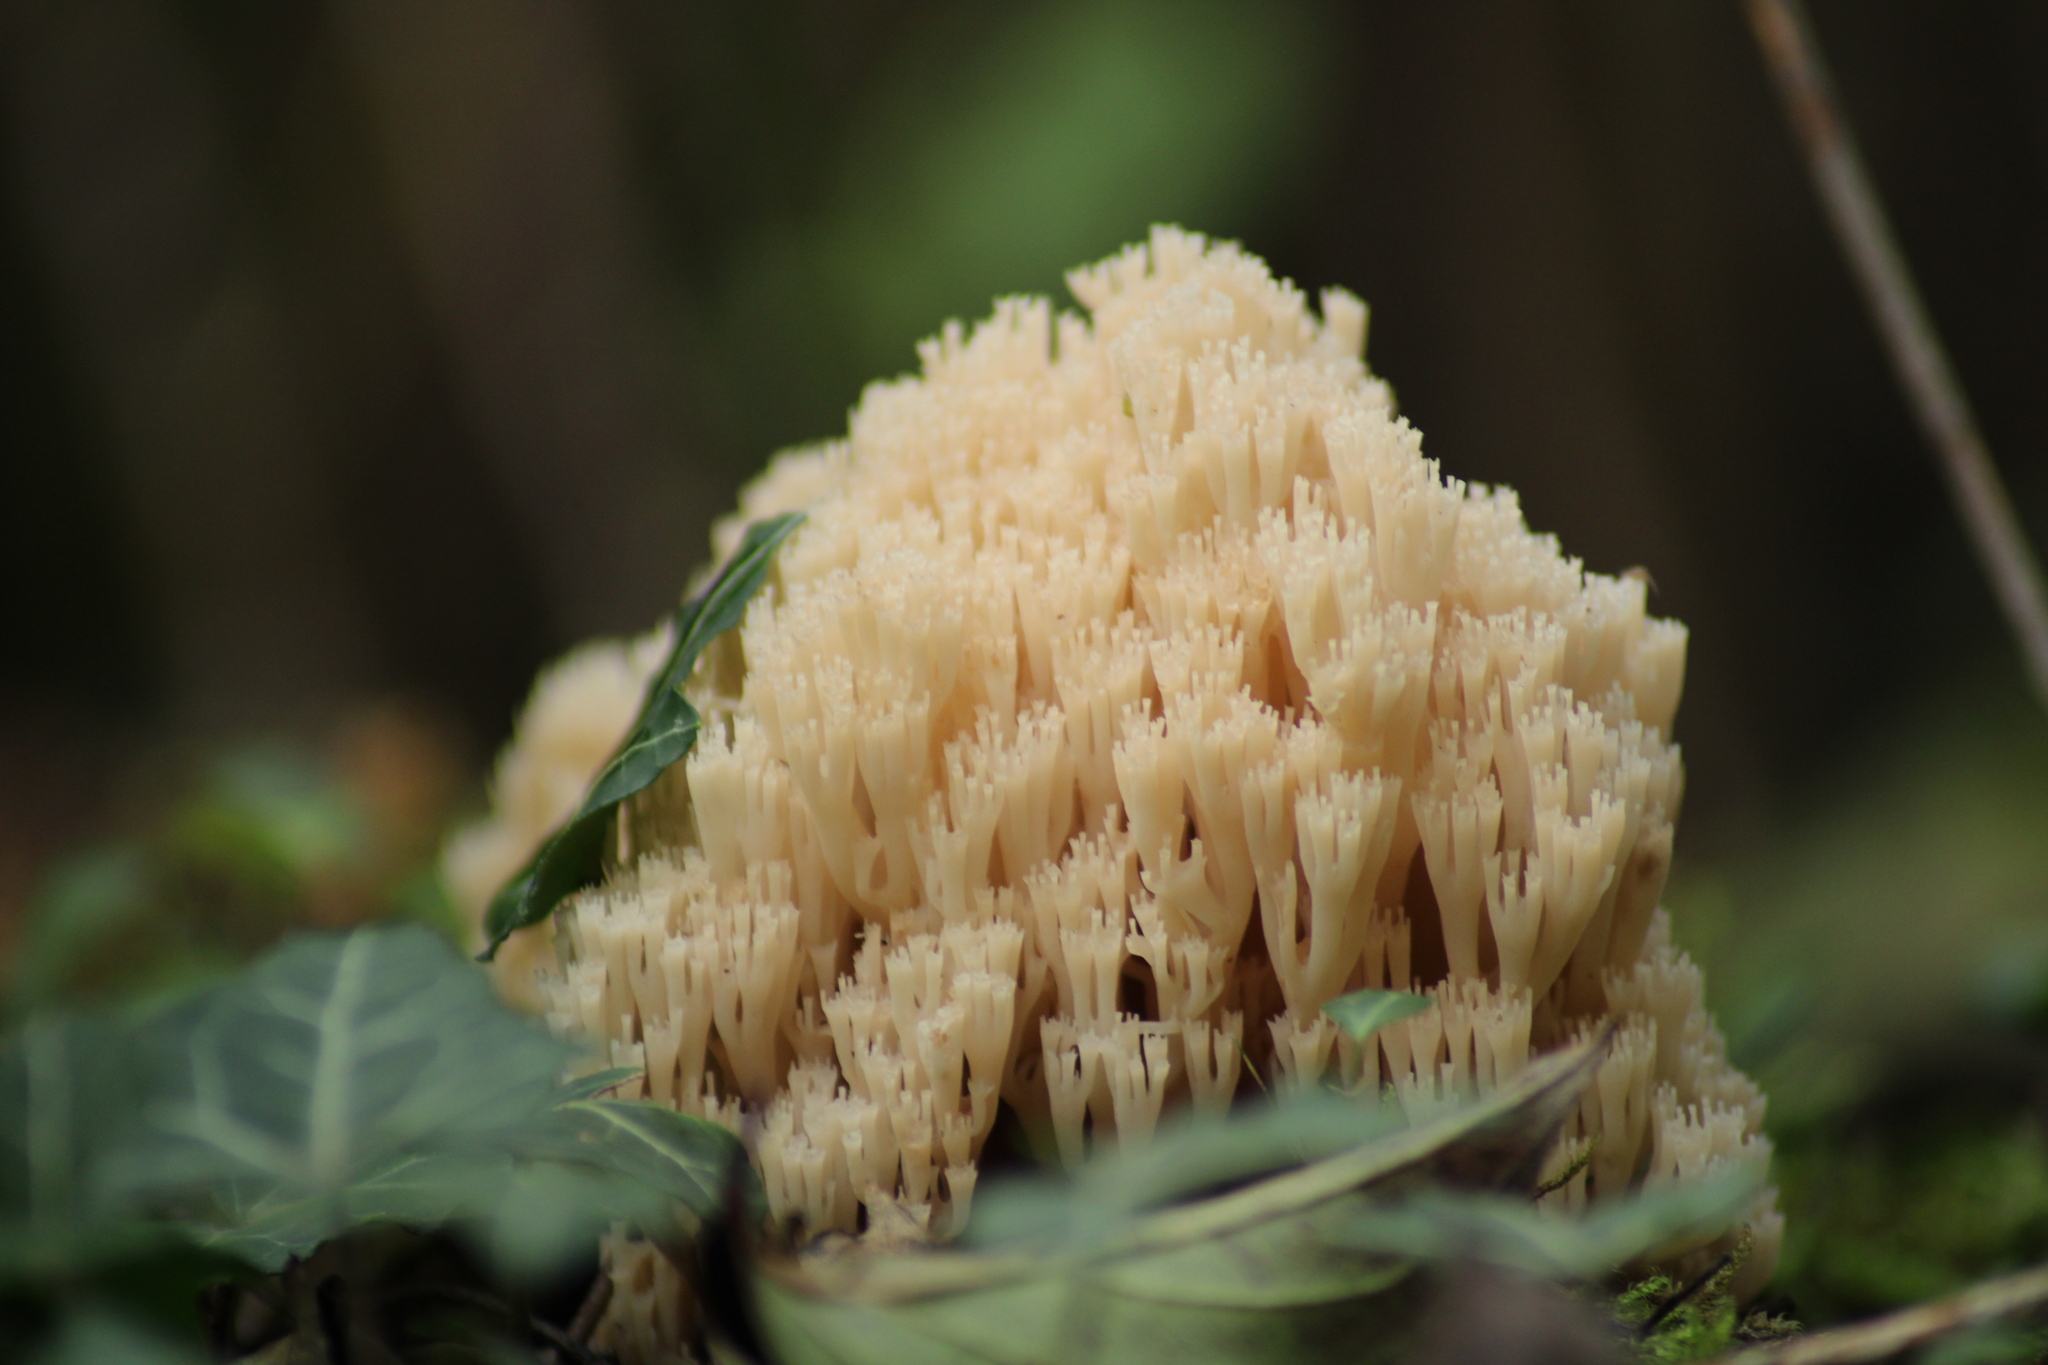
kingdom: Fungi
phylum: Basidiomycota
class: Agaricomycetes
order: Russulales
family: Auriscalpiaceae
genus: Artomyces
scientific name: Artomyces pyxidatus
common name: Crown-tipped coral fungus
